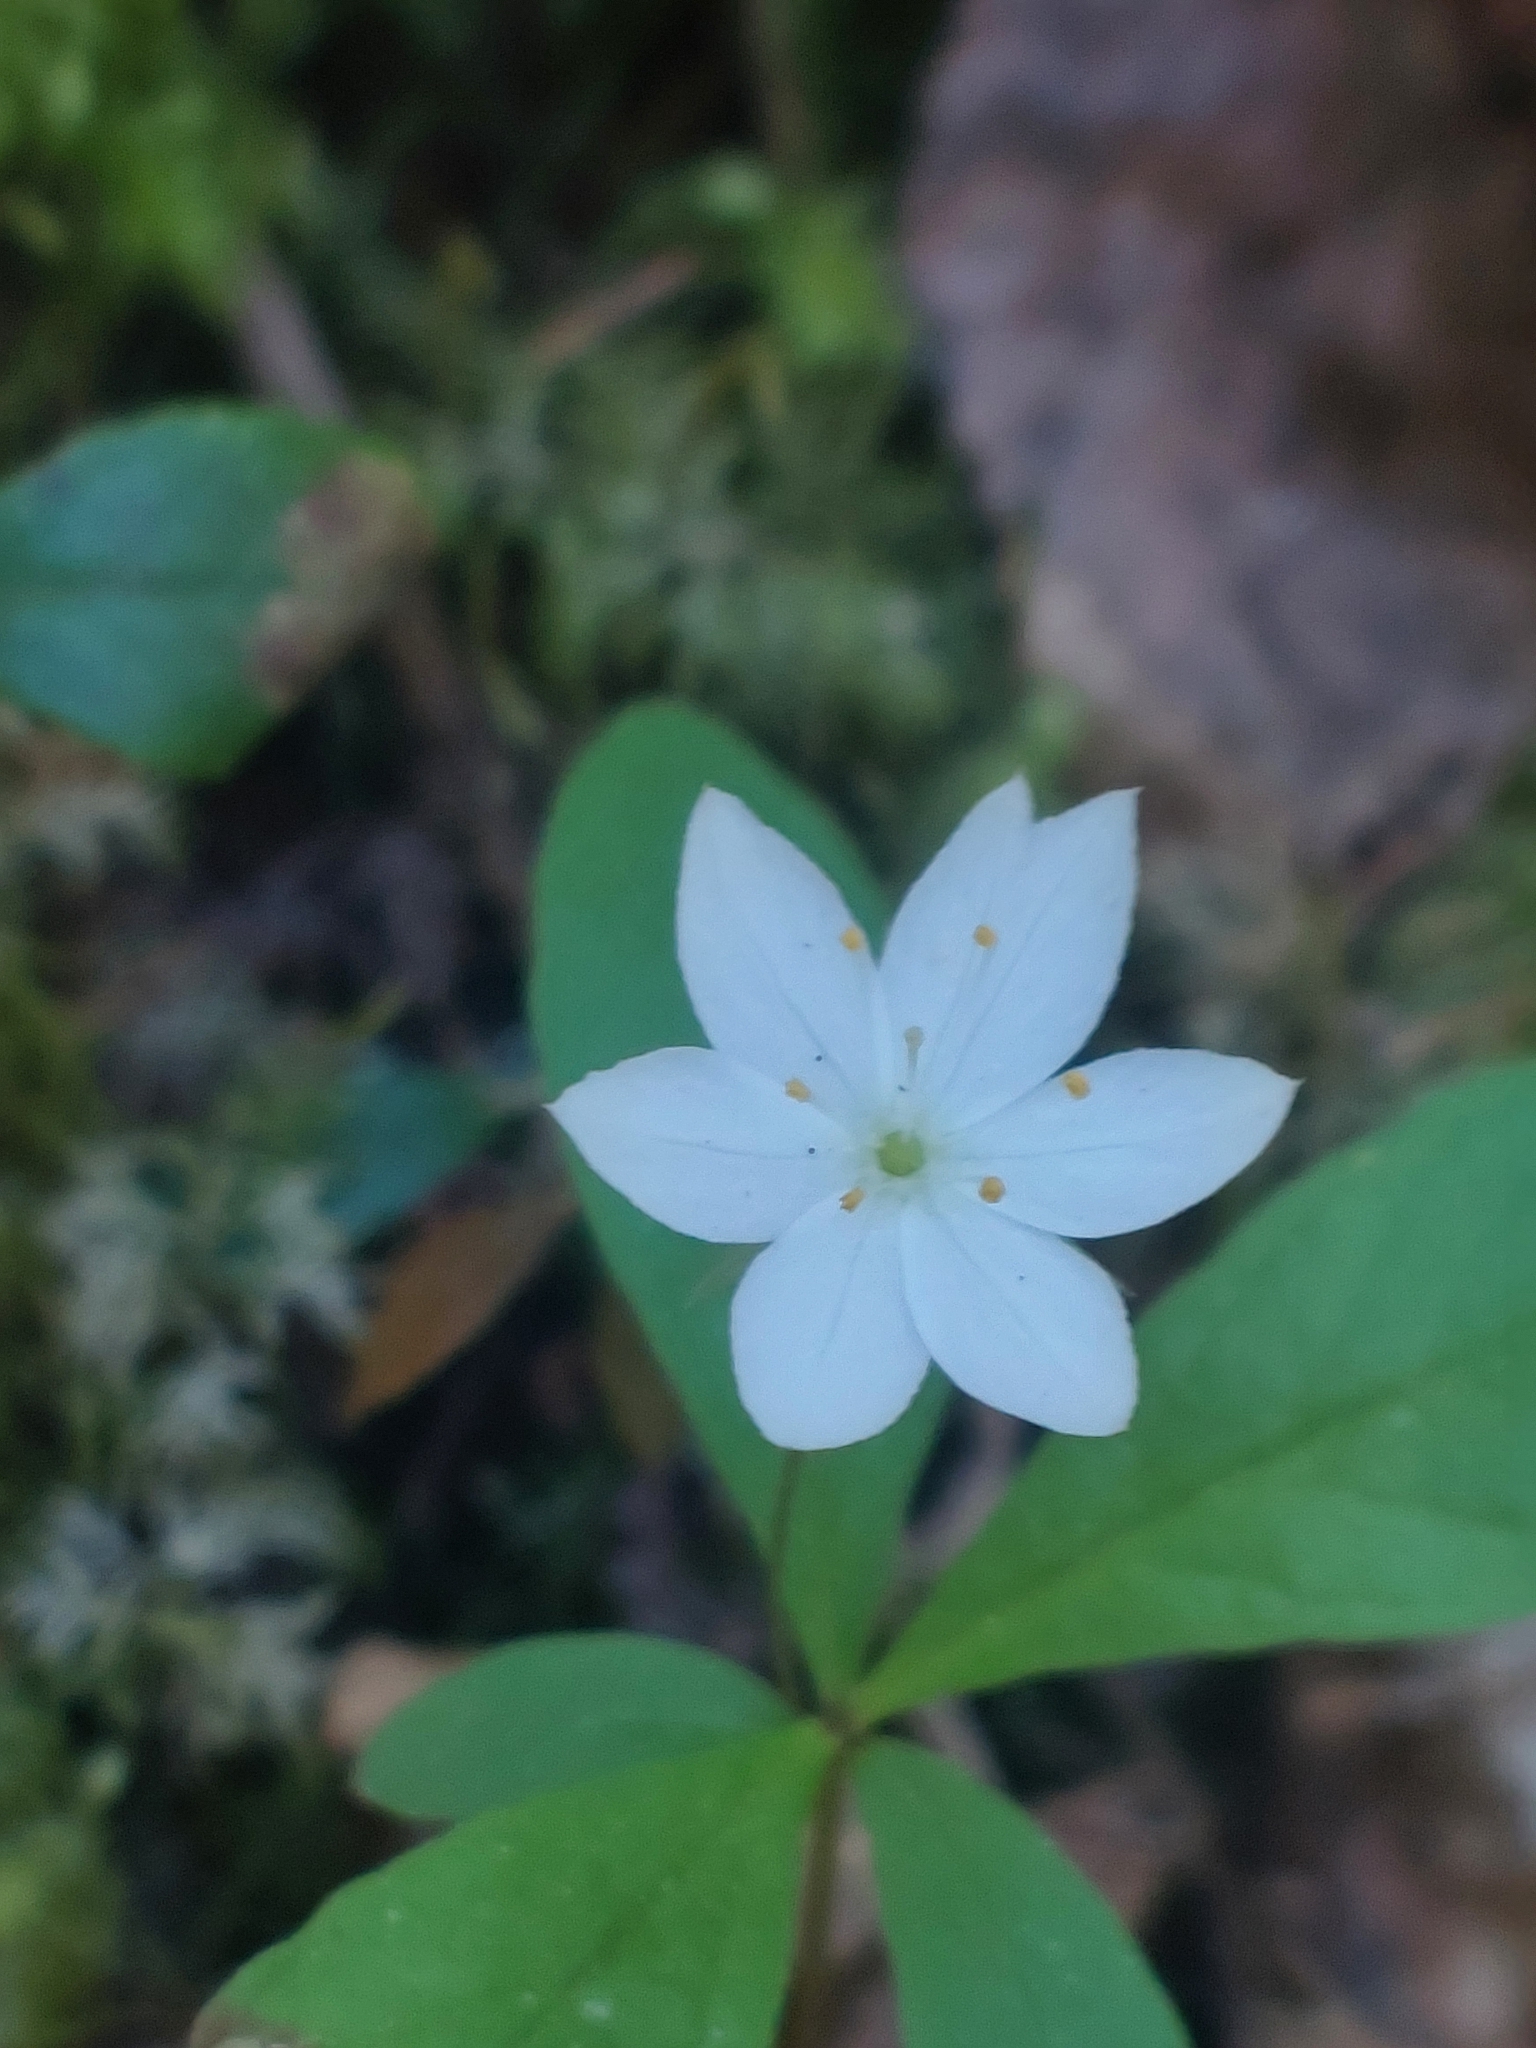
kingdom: Plantae
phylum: Tracheophyta
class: Magnoliopsida
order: Ericales
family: Primulaceae
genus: Lysimachia
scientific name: Lysimachia europaea
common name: Arctic starflower
